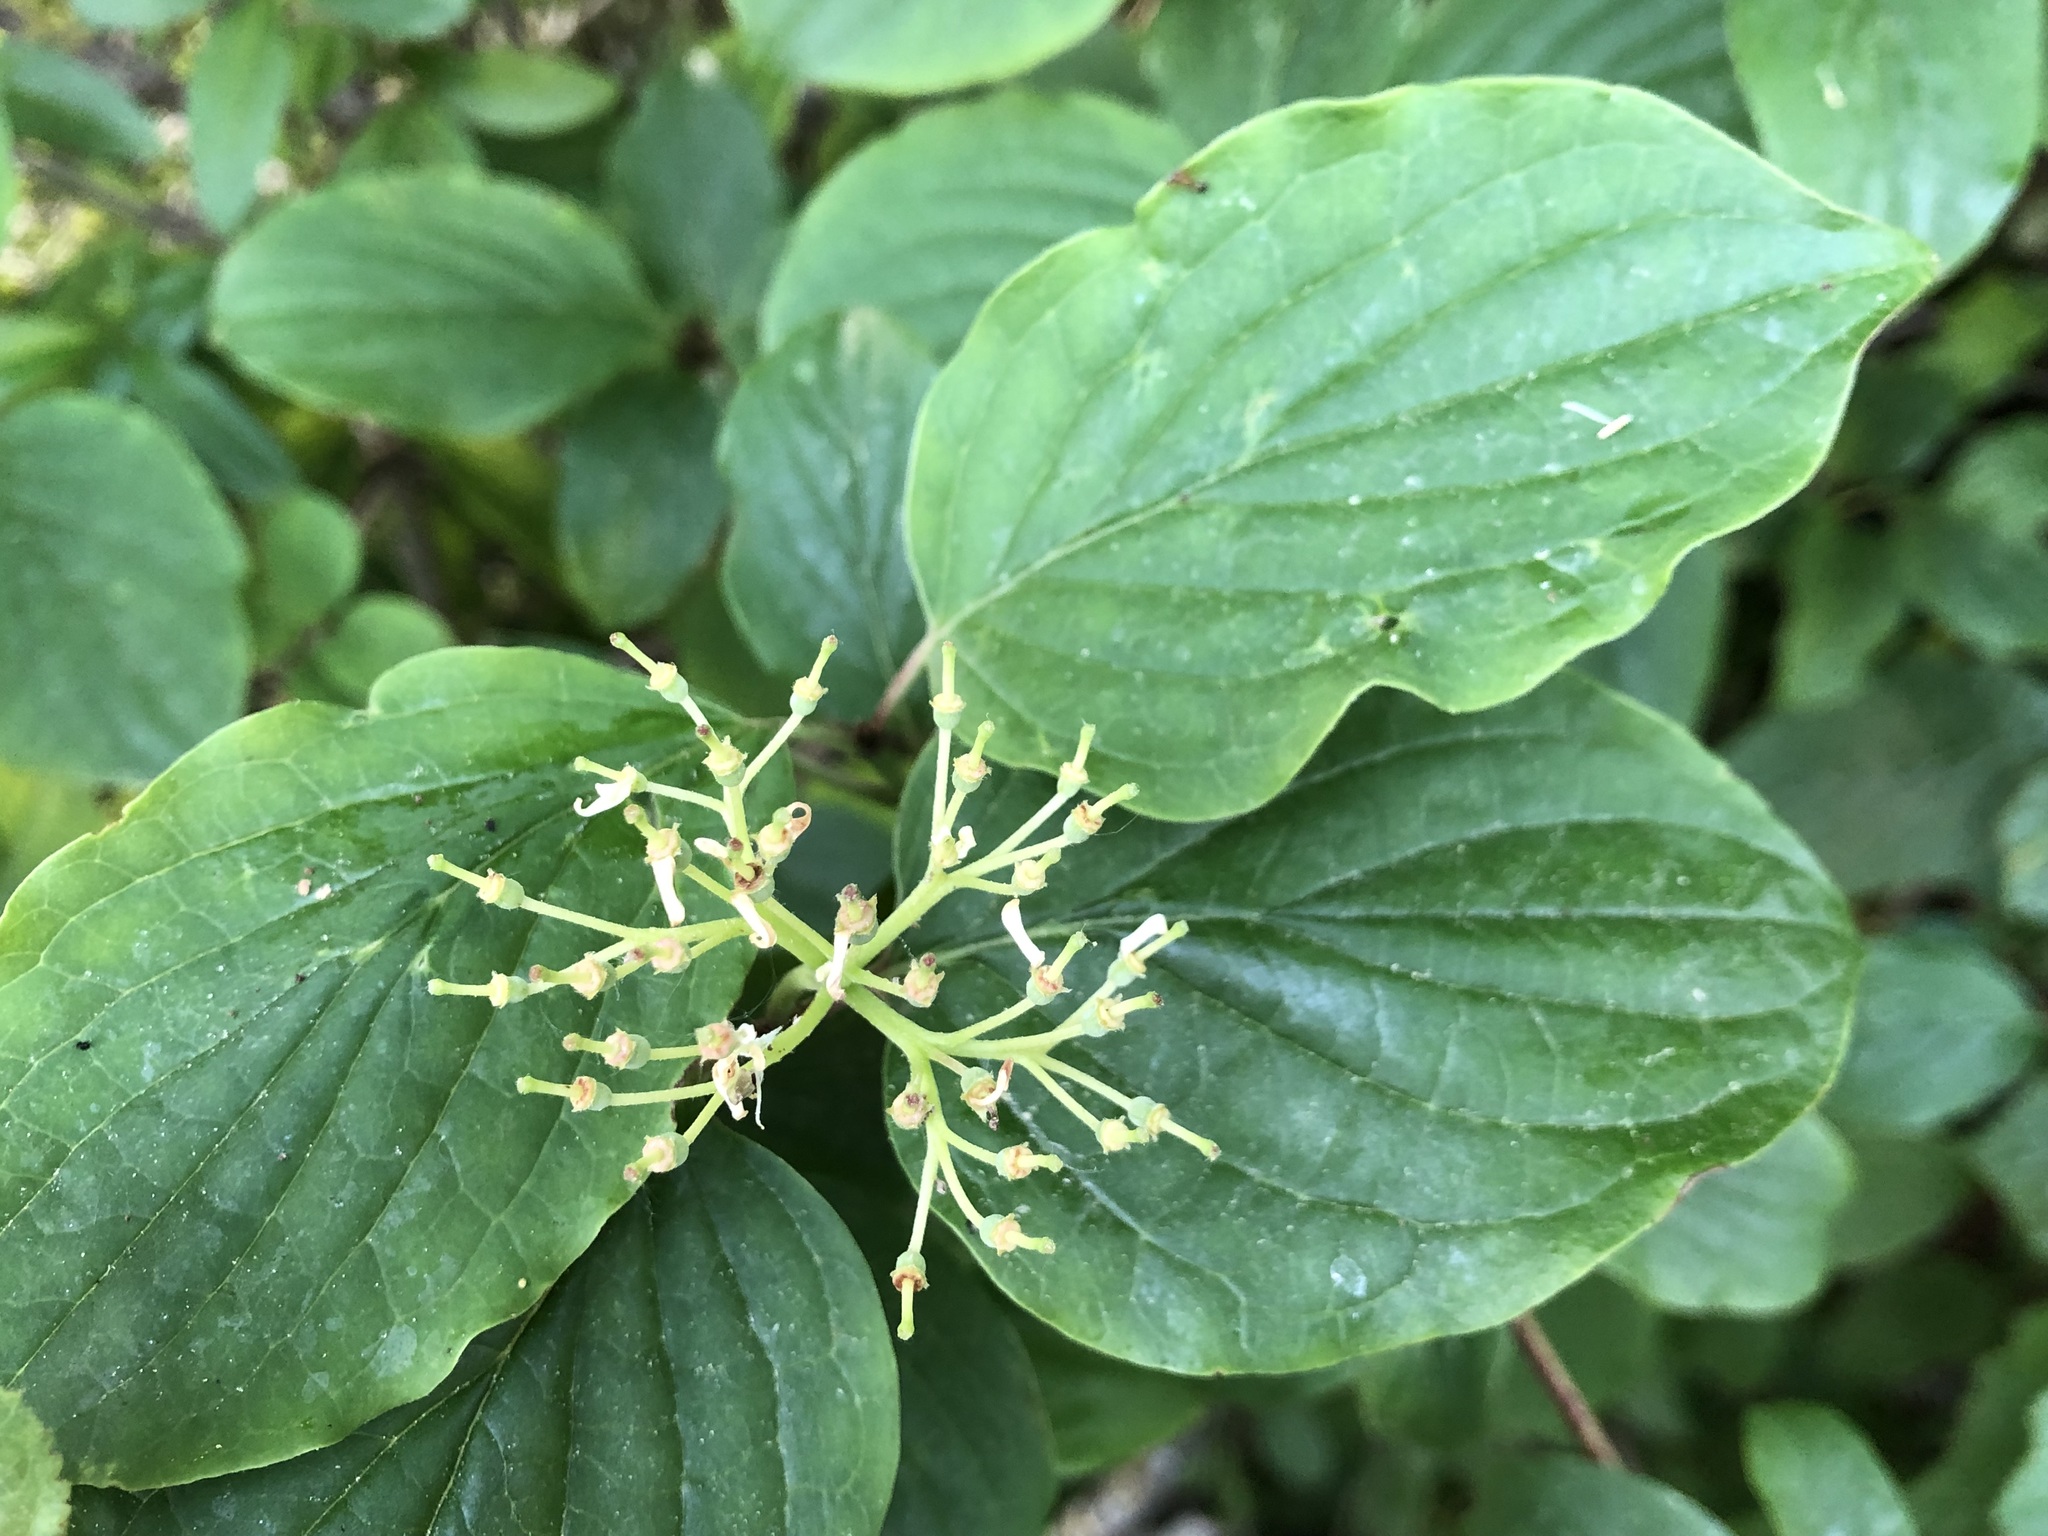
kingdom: Plantae
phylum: Tracheophyta
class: Magnoliopsida
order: Cornales
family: Cornaceae
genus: Cornus
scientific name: Cornus sanguinea
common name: Dogwood
